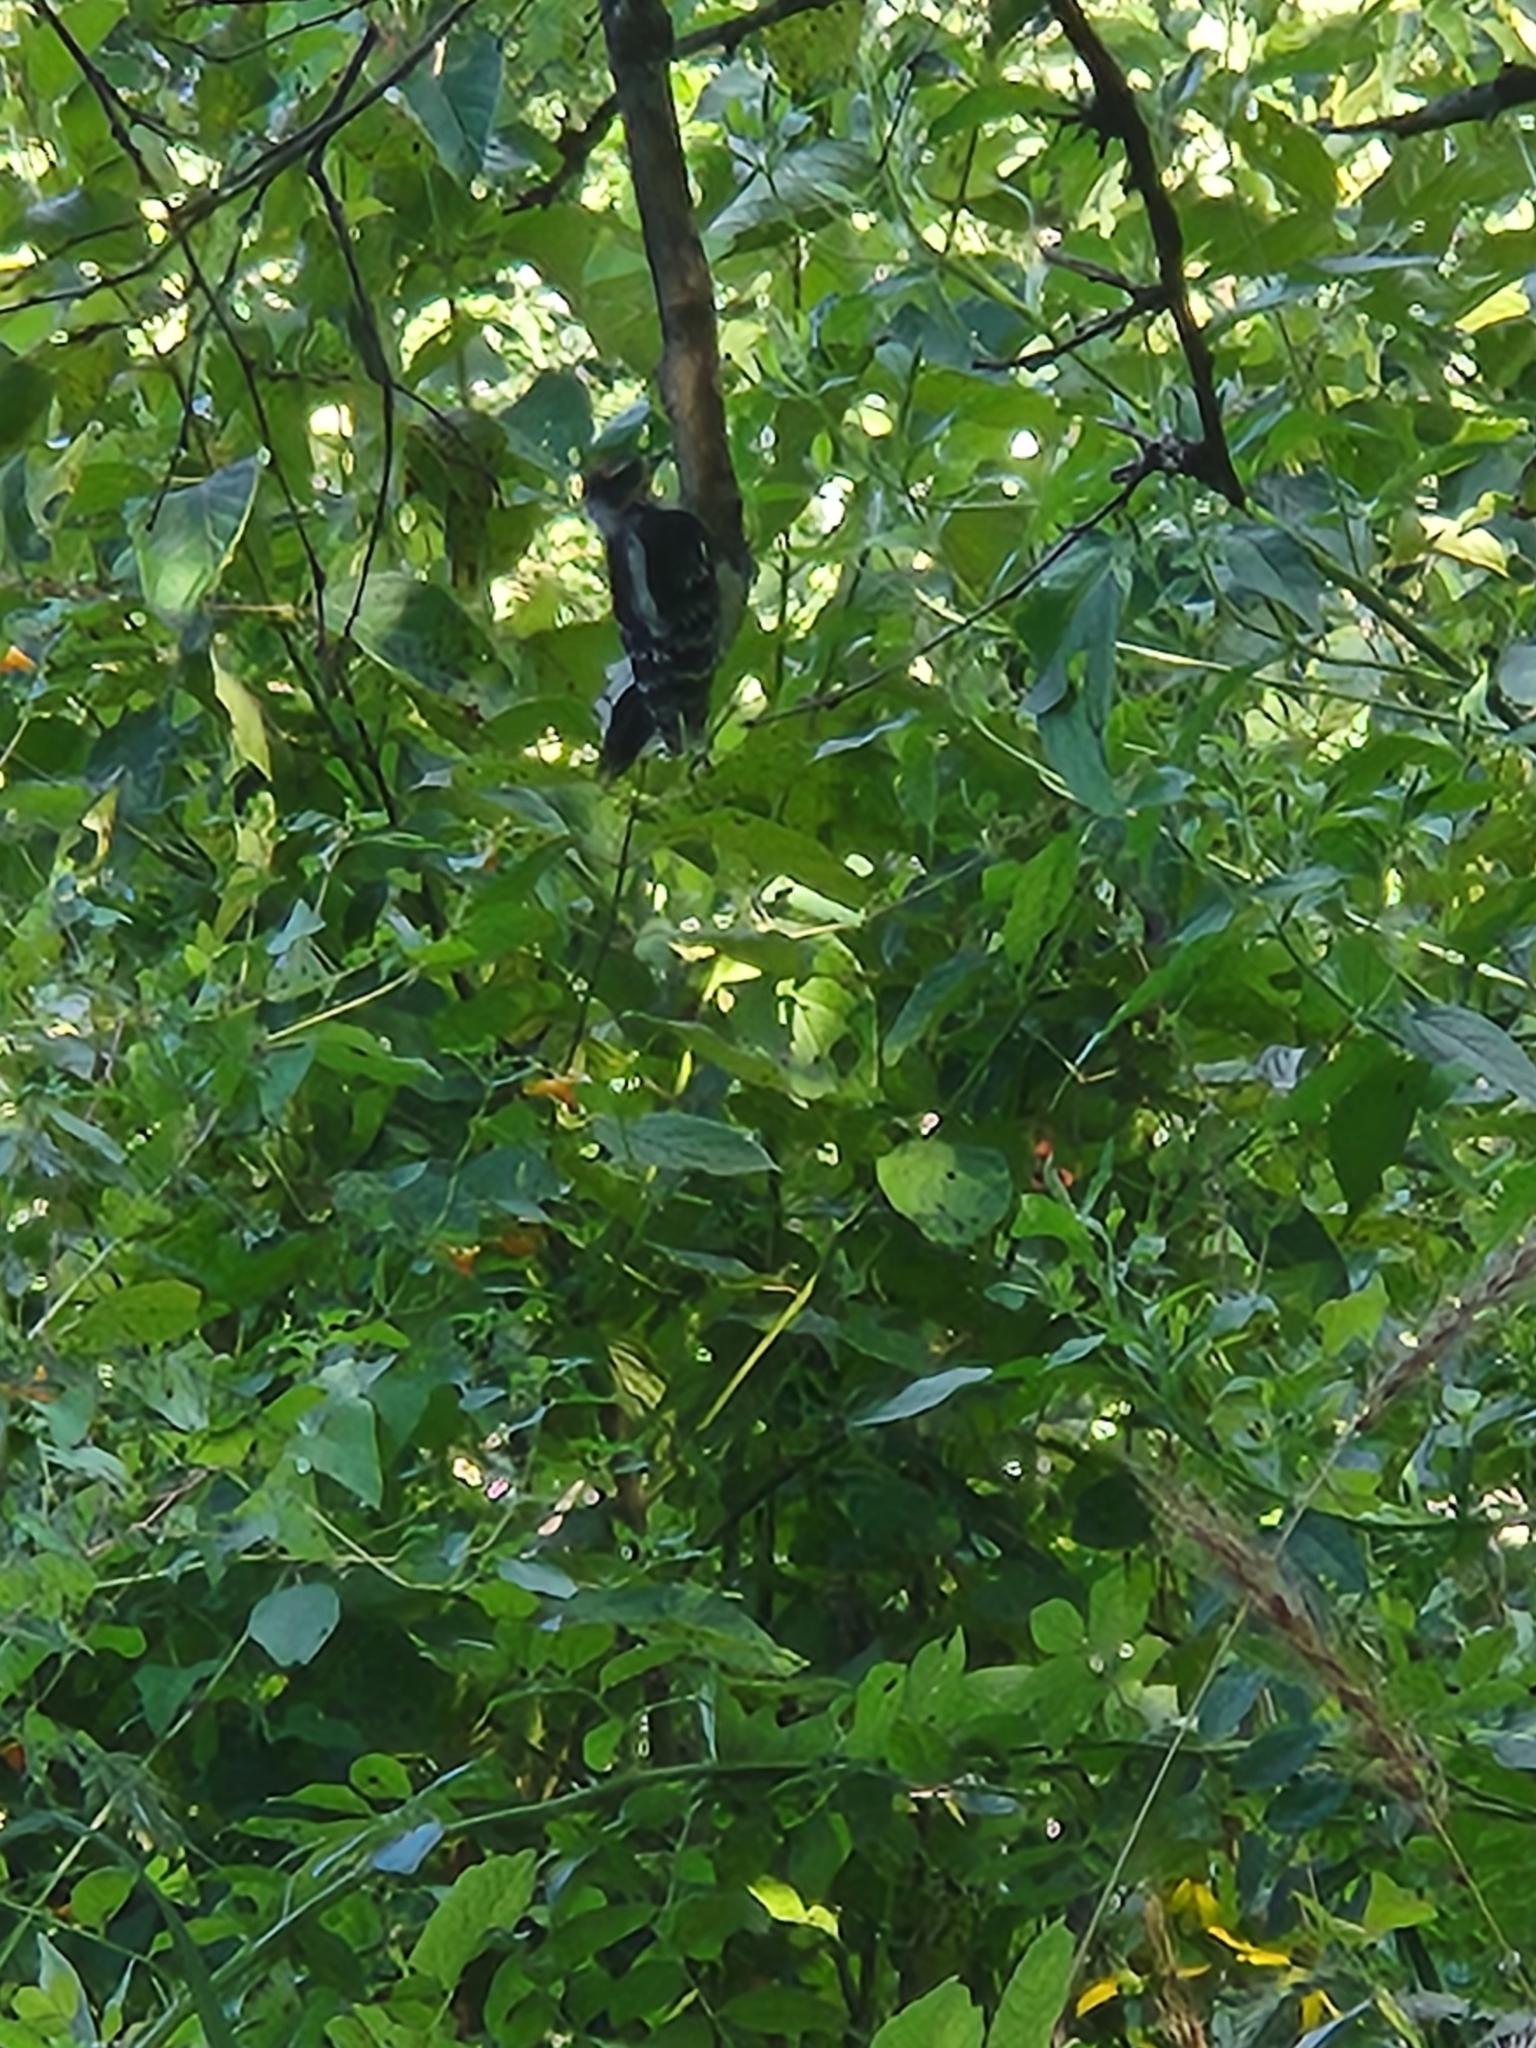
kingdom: Animalia
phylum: Chordata
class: Aves
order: Piciformes
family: Picidae
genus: Dryobates
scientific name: Dryobates pubescens
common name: Downy woodpecker
